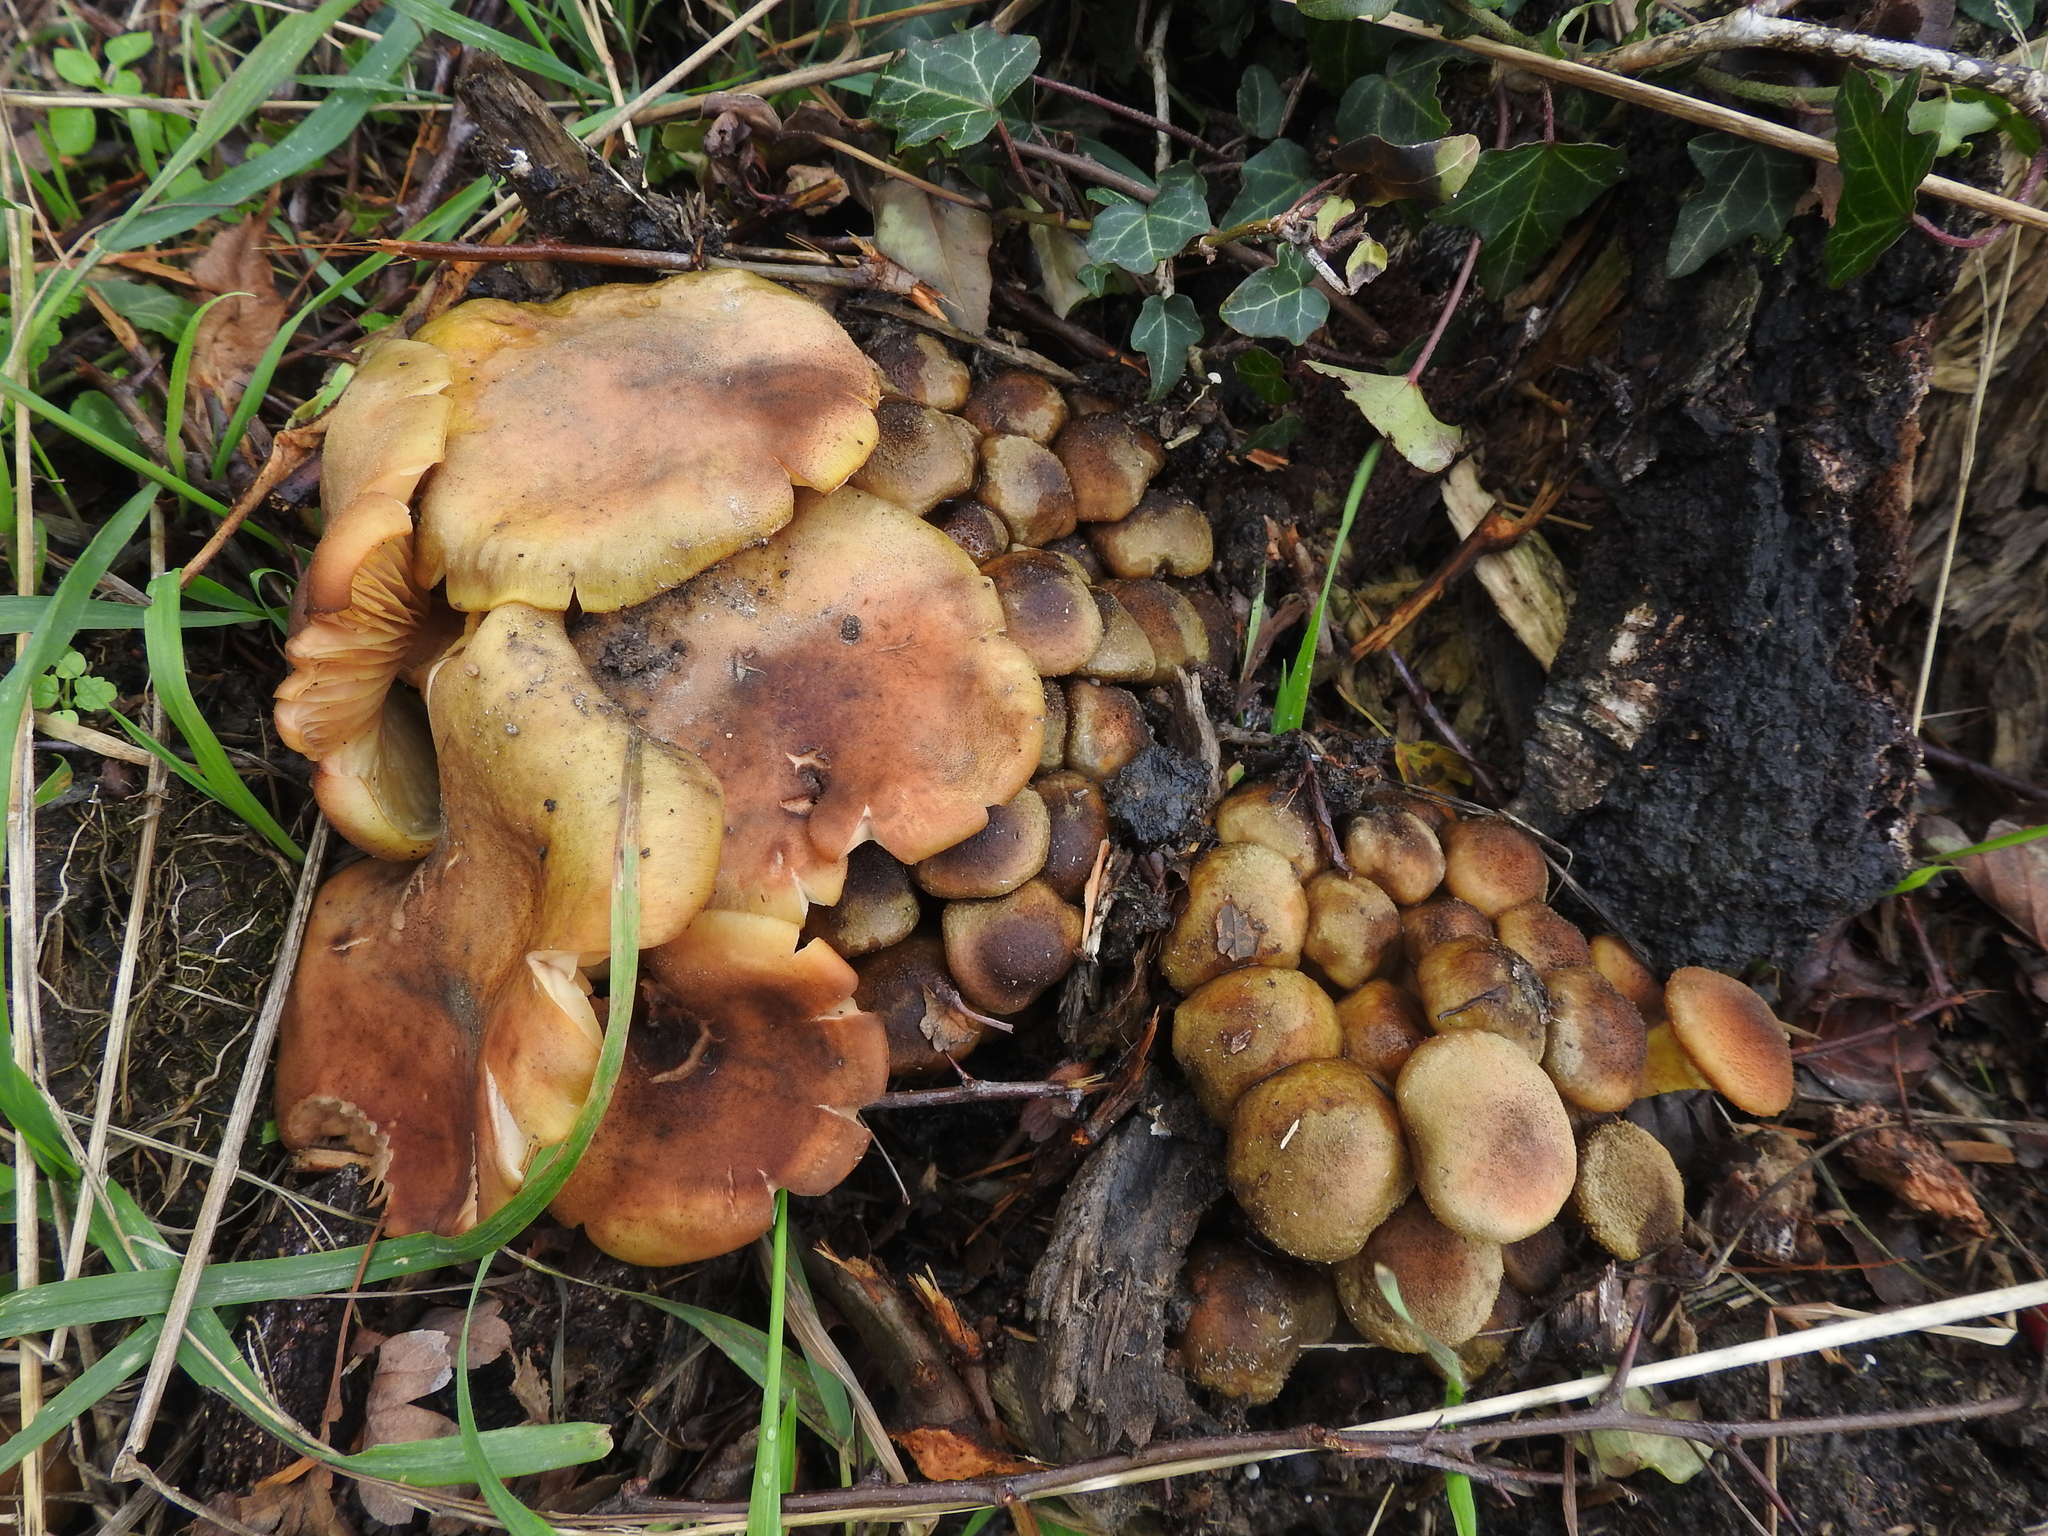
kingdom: Fungi
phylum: Basidiomycota
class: Agaricomycetes
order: Agaricales
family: Strophariaceae
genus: Hypholoma
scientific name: Hypholoma fasciculare
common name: Sulphur tuft
